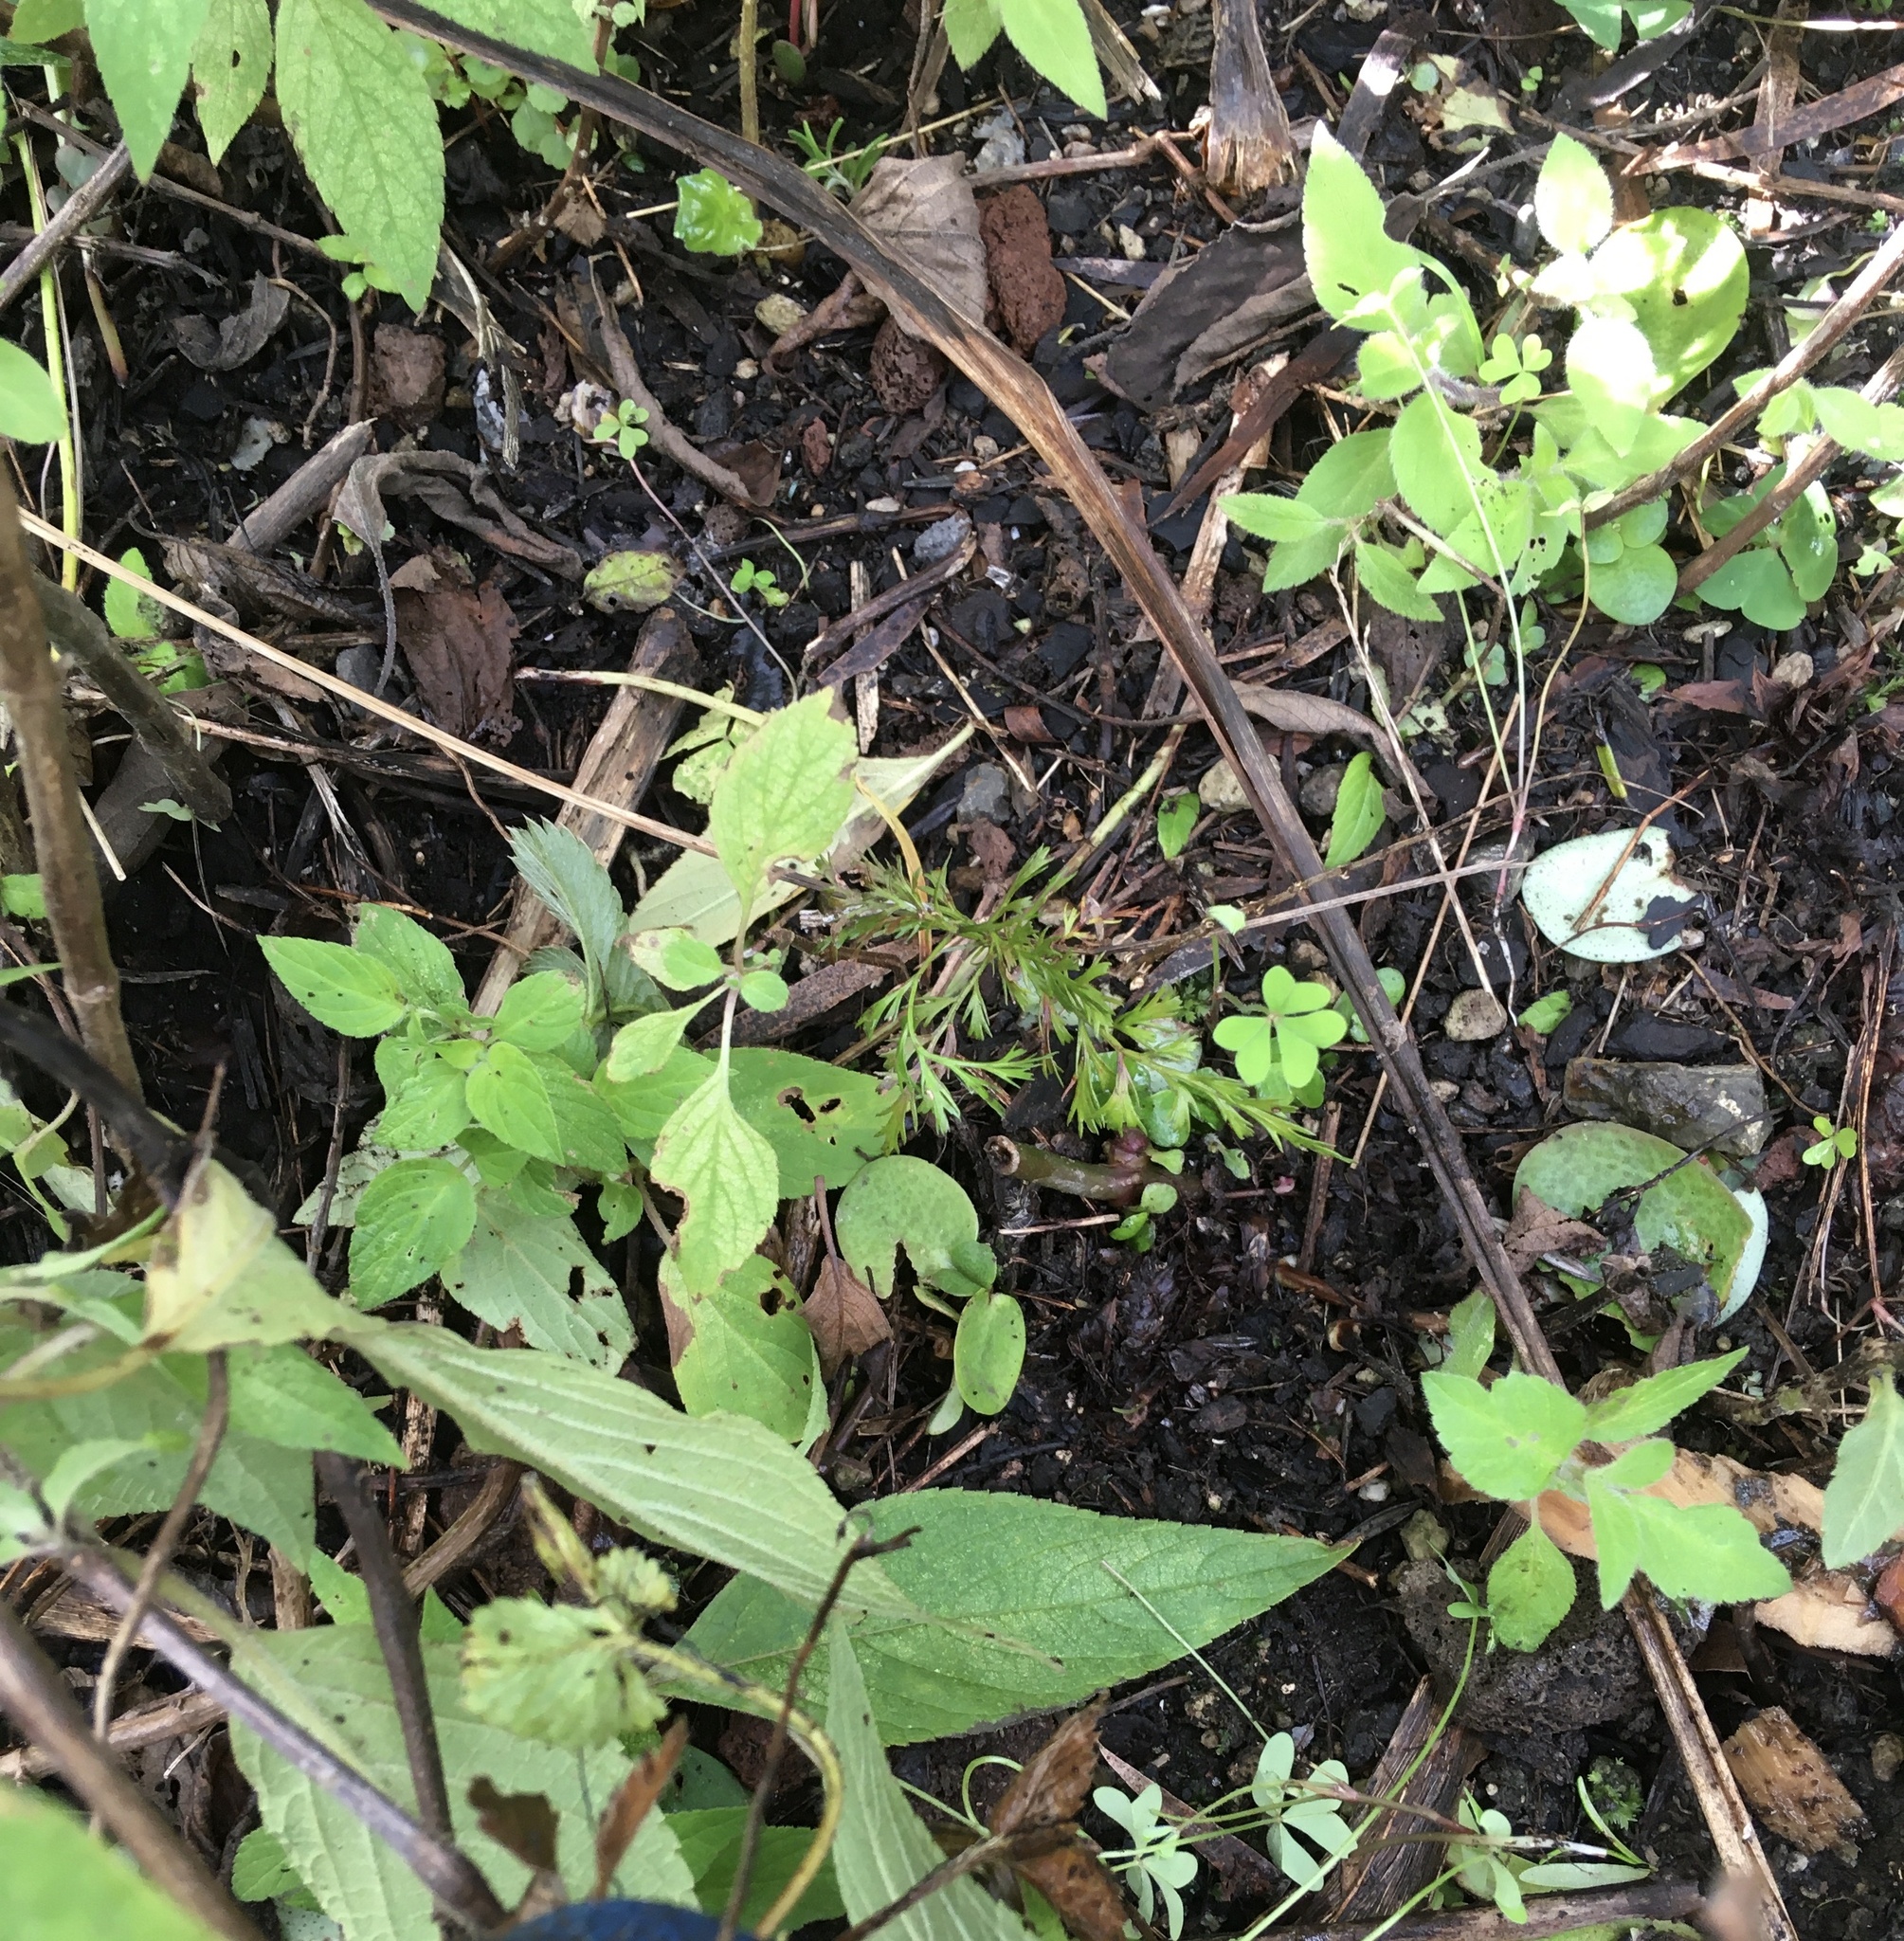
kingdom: Plantae
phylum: Tracheophyta
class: Pinopsida
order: Pinales
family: Phyllocladaceae
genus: Phyllocladus
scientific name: Phyllocladus trichomanoides
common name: Celery pine
